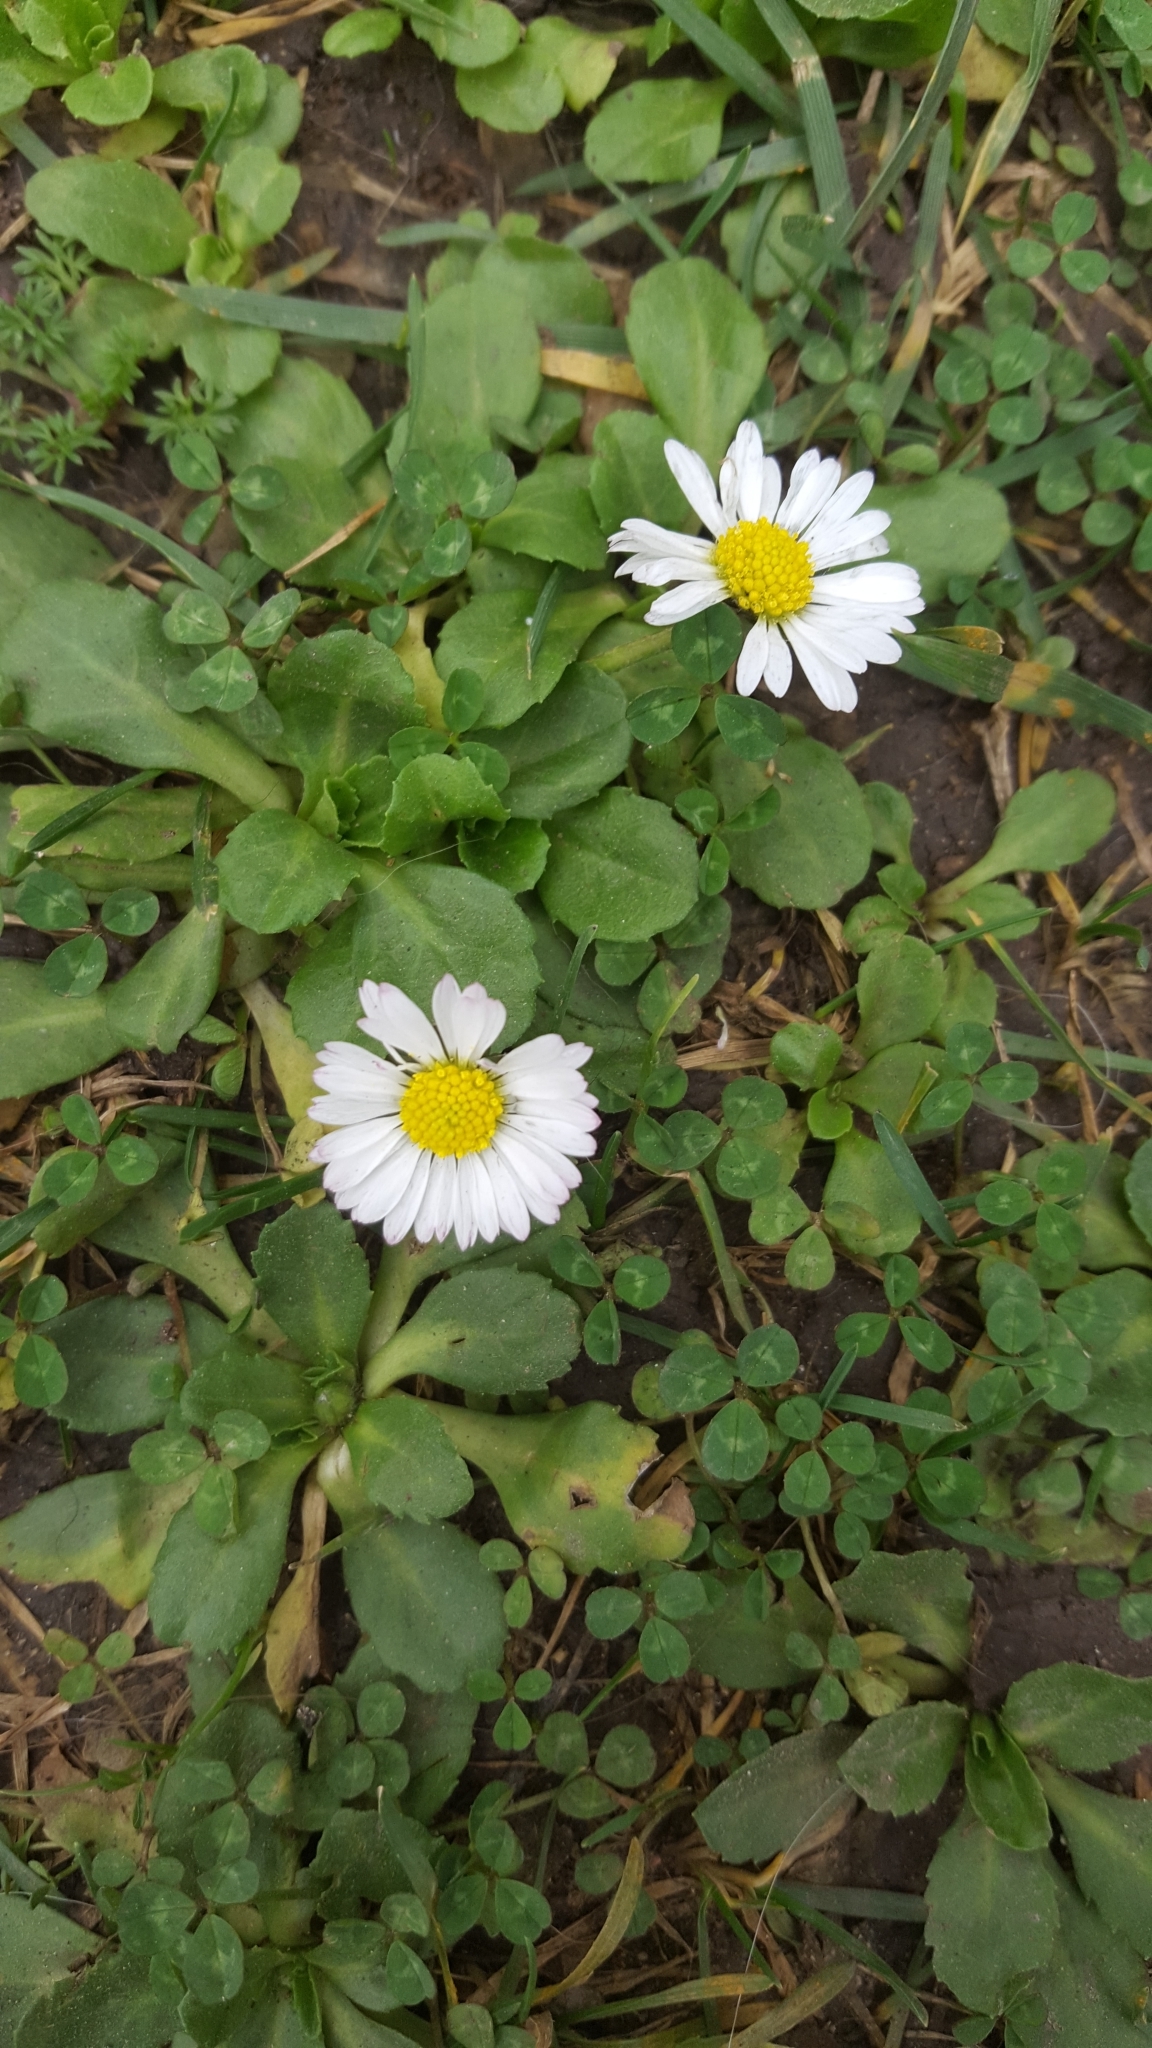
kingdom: Plantae
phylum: Tracheophyta
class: Magnoliopsida
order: Asterales
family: Asteraceae
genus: Bellis
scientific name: Bellis perennis
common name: Lawndaisy
